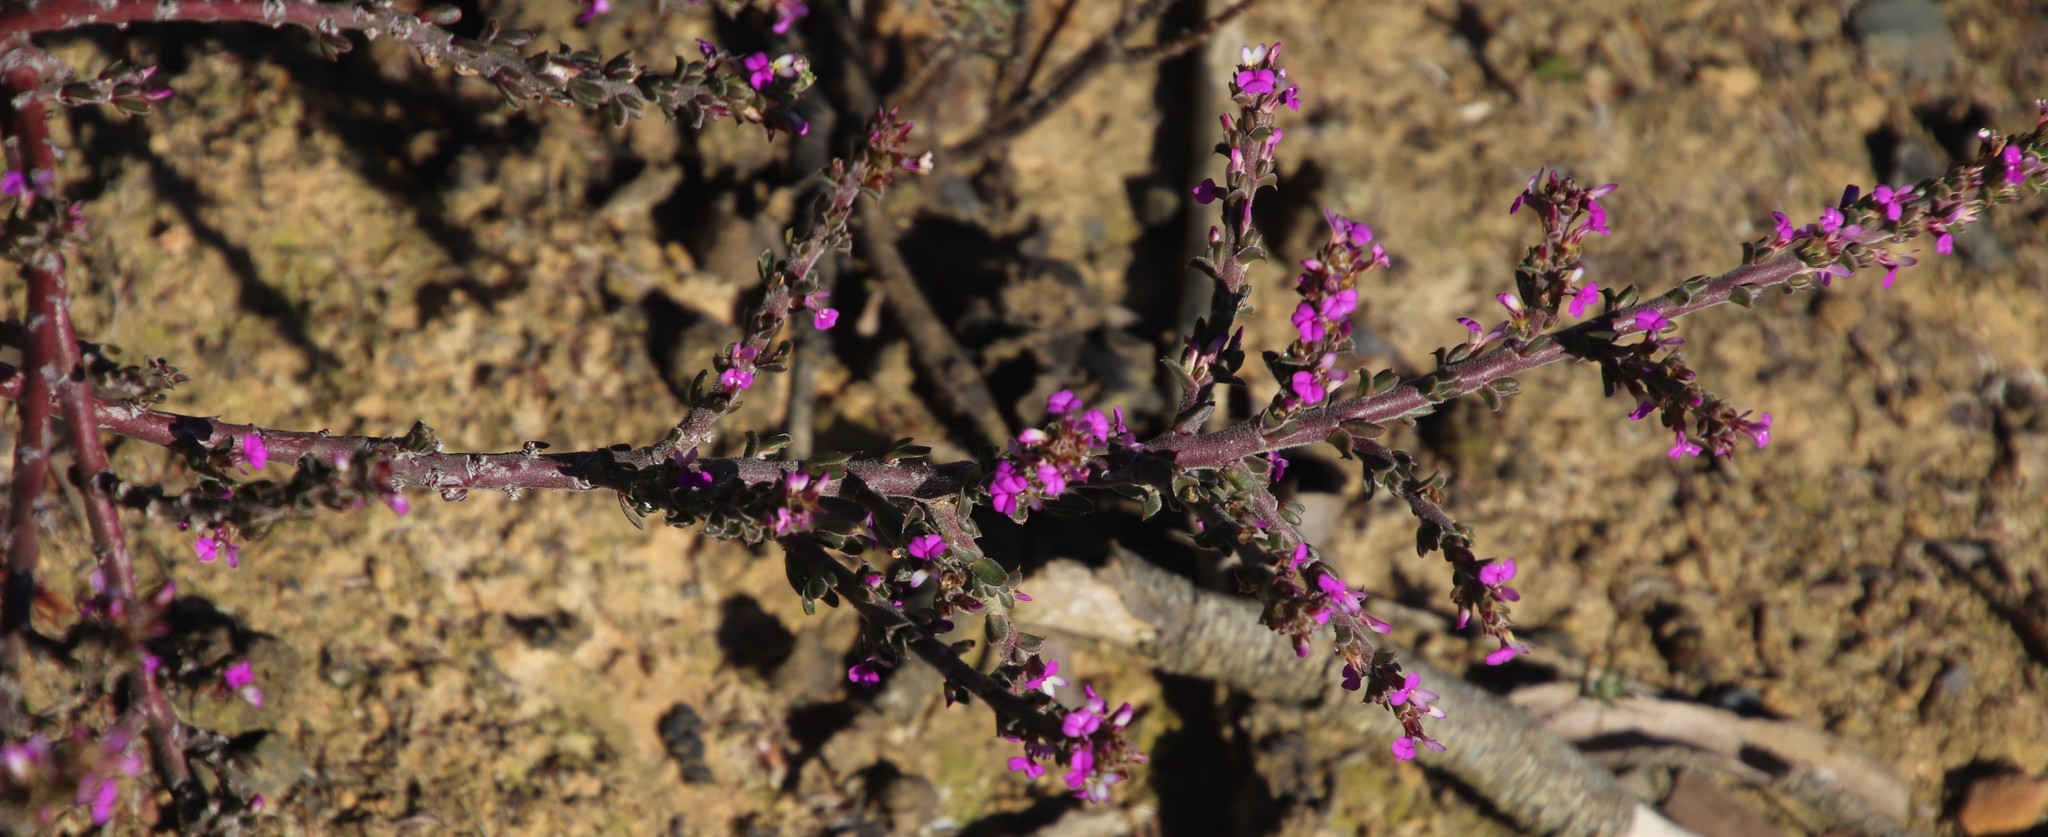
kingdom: Plantae
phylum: Tracheophyta
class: Magnoliopsida
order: Fabales
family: Polygalaceae
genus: Muraltia
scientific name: Muraltia macropetala
